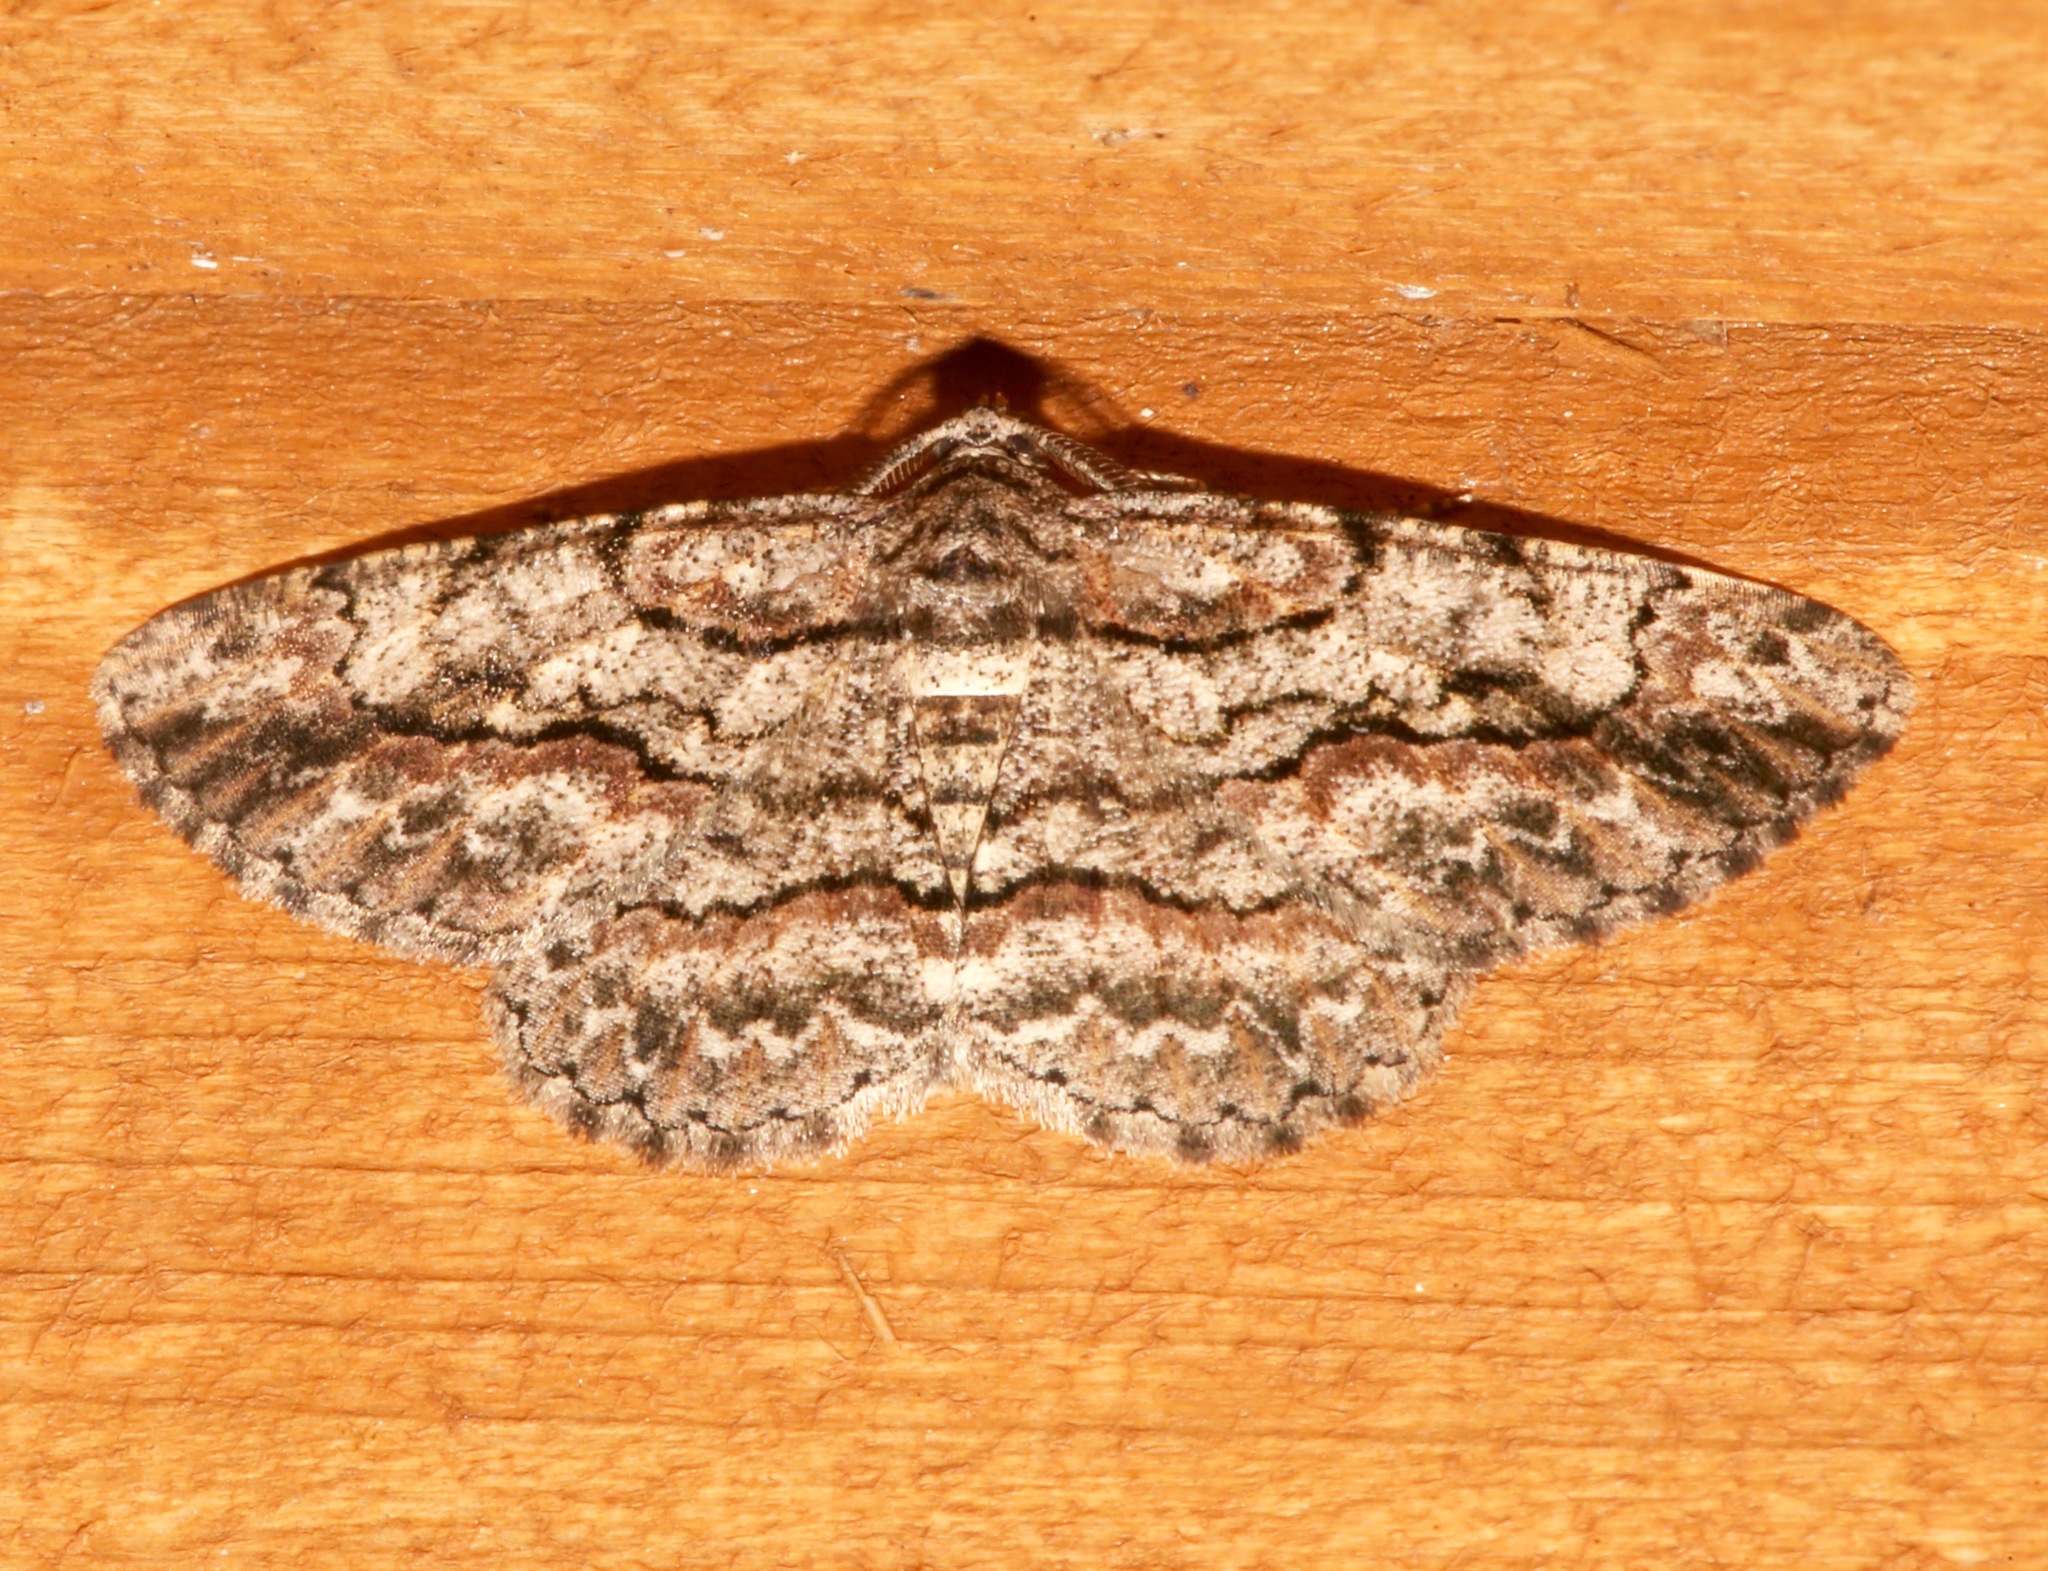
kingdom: Animalia
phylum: Arthropoda
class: Insecta
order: Lepidoptera
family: Geometridae
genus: Anavitrinella
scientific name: Anavitrinella pampinaria
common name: Common gray
